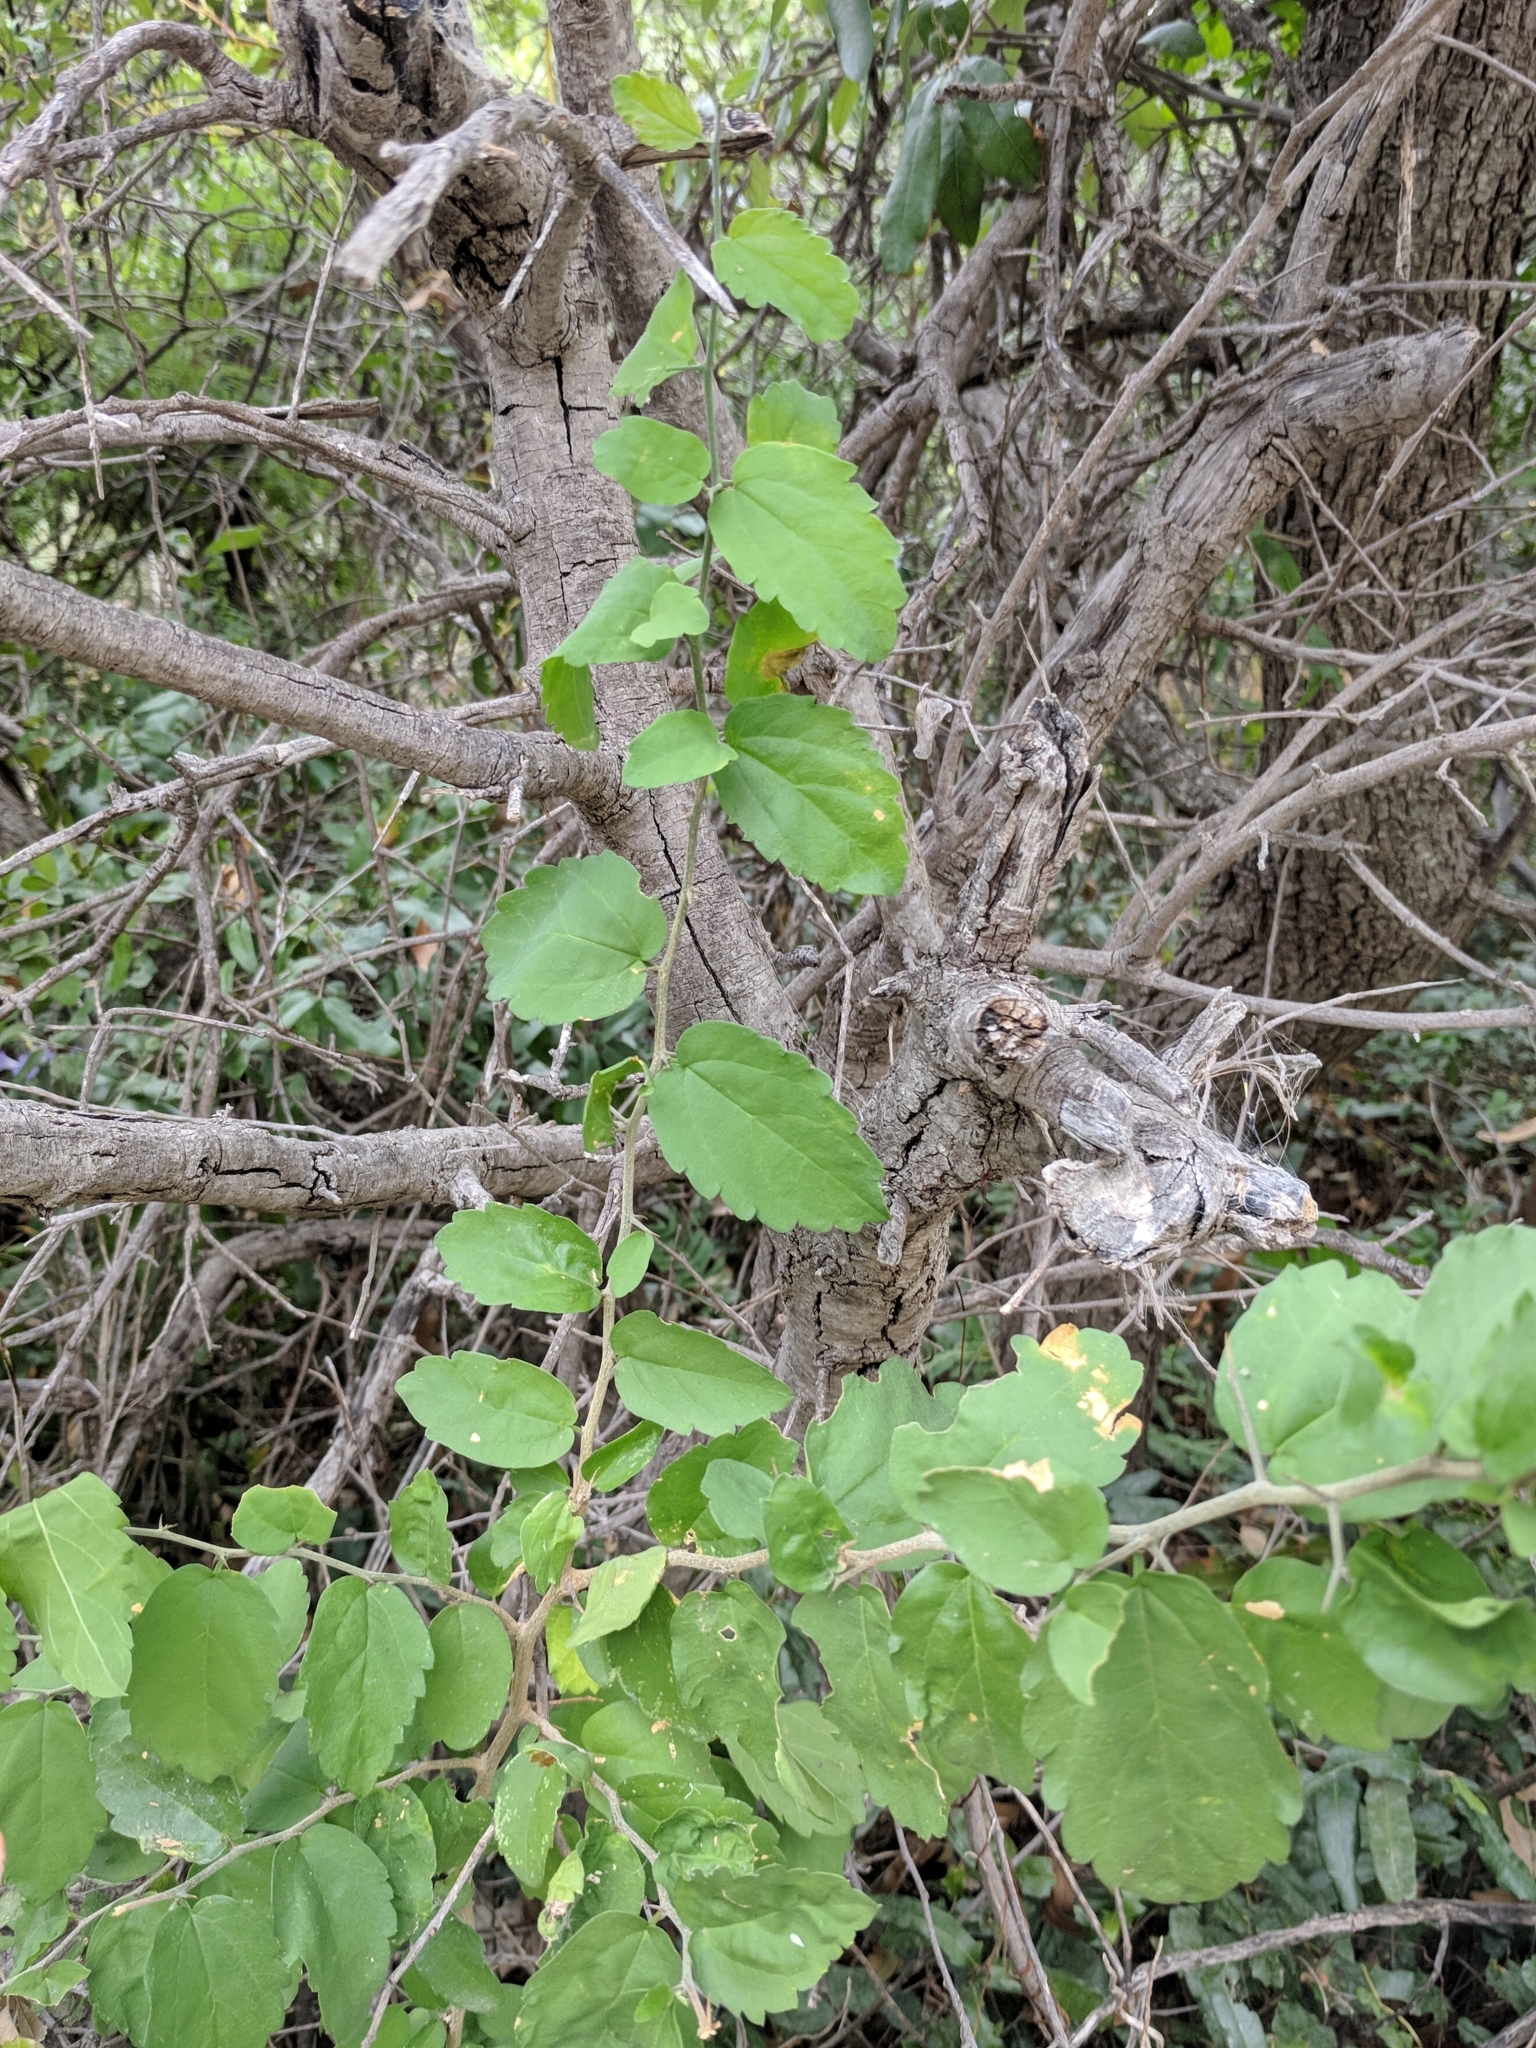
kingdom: Plantae
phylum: Tracheophyta
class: Magnoliopsida
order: Rosales
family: Cannabaceae
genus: Celtis
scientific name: Celtis pallida
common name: Desert hackberry
